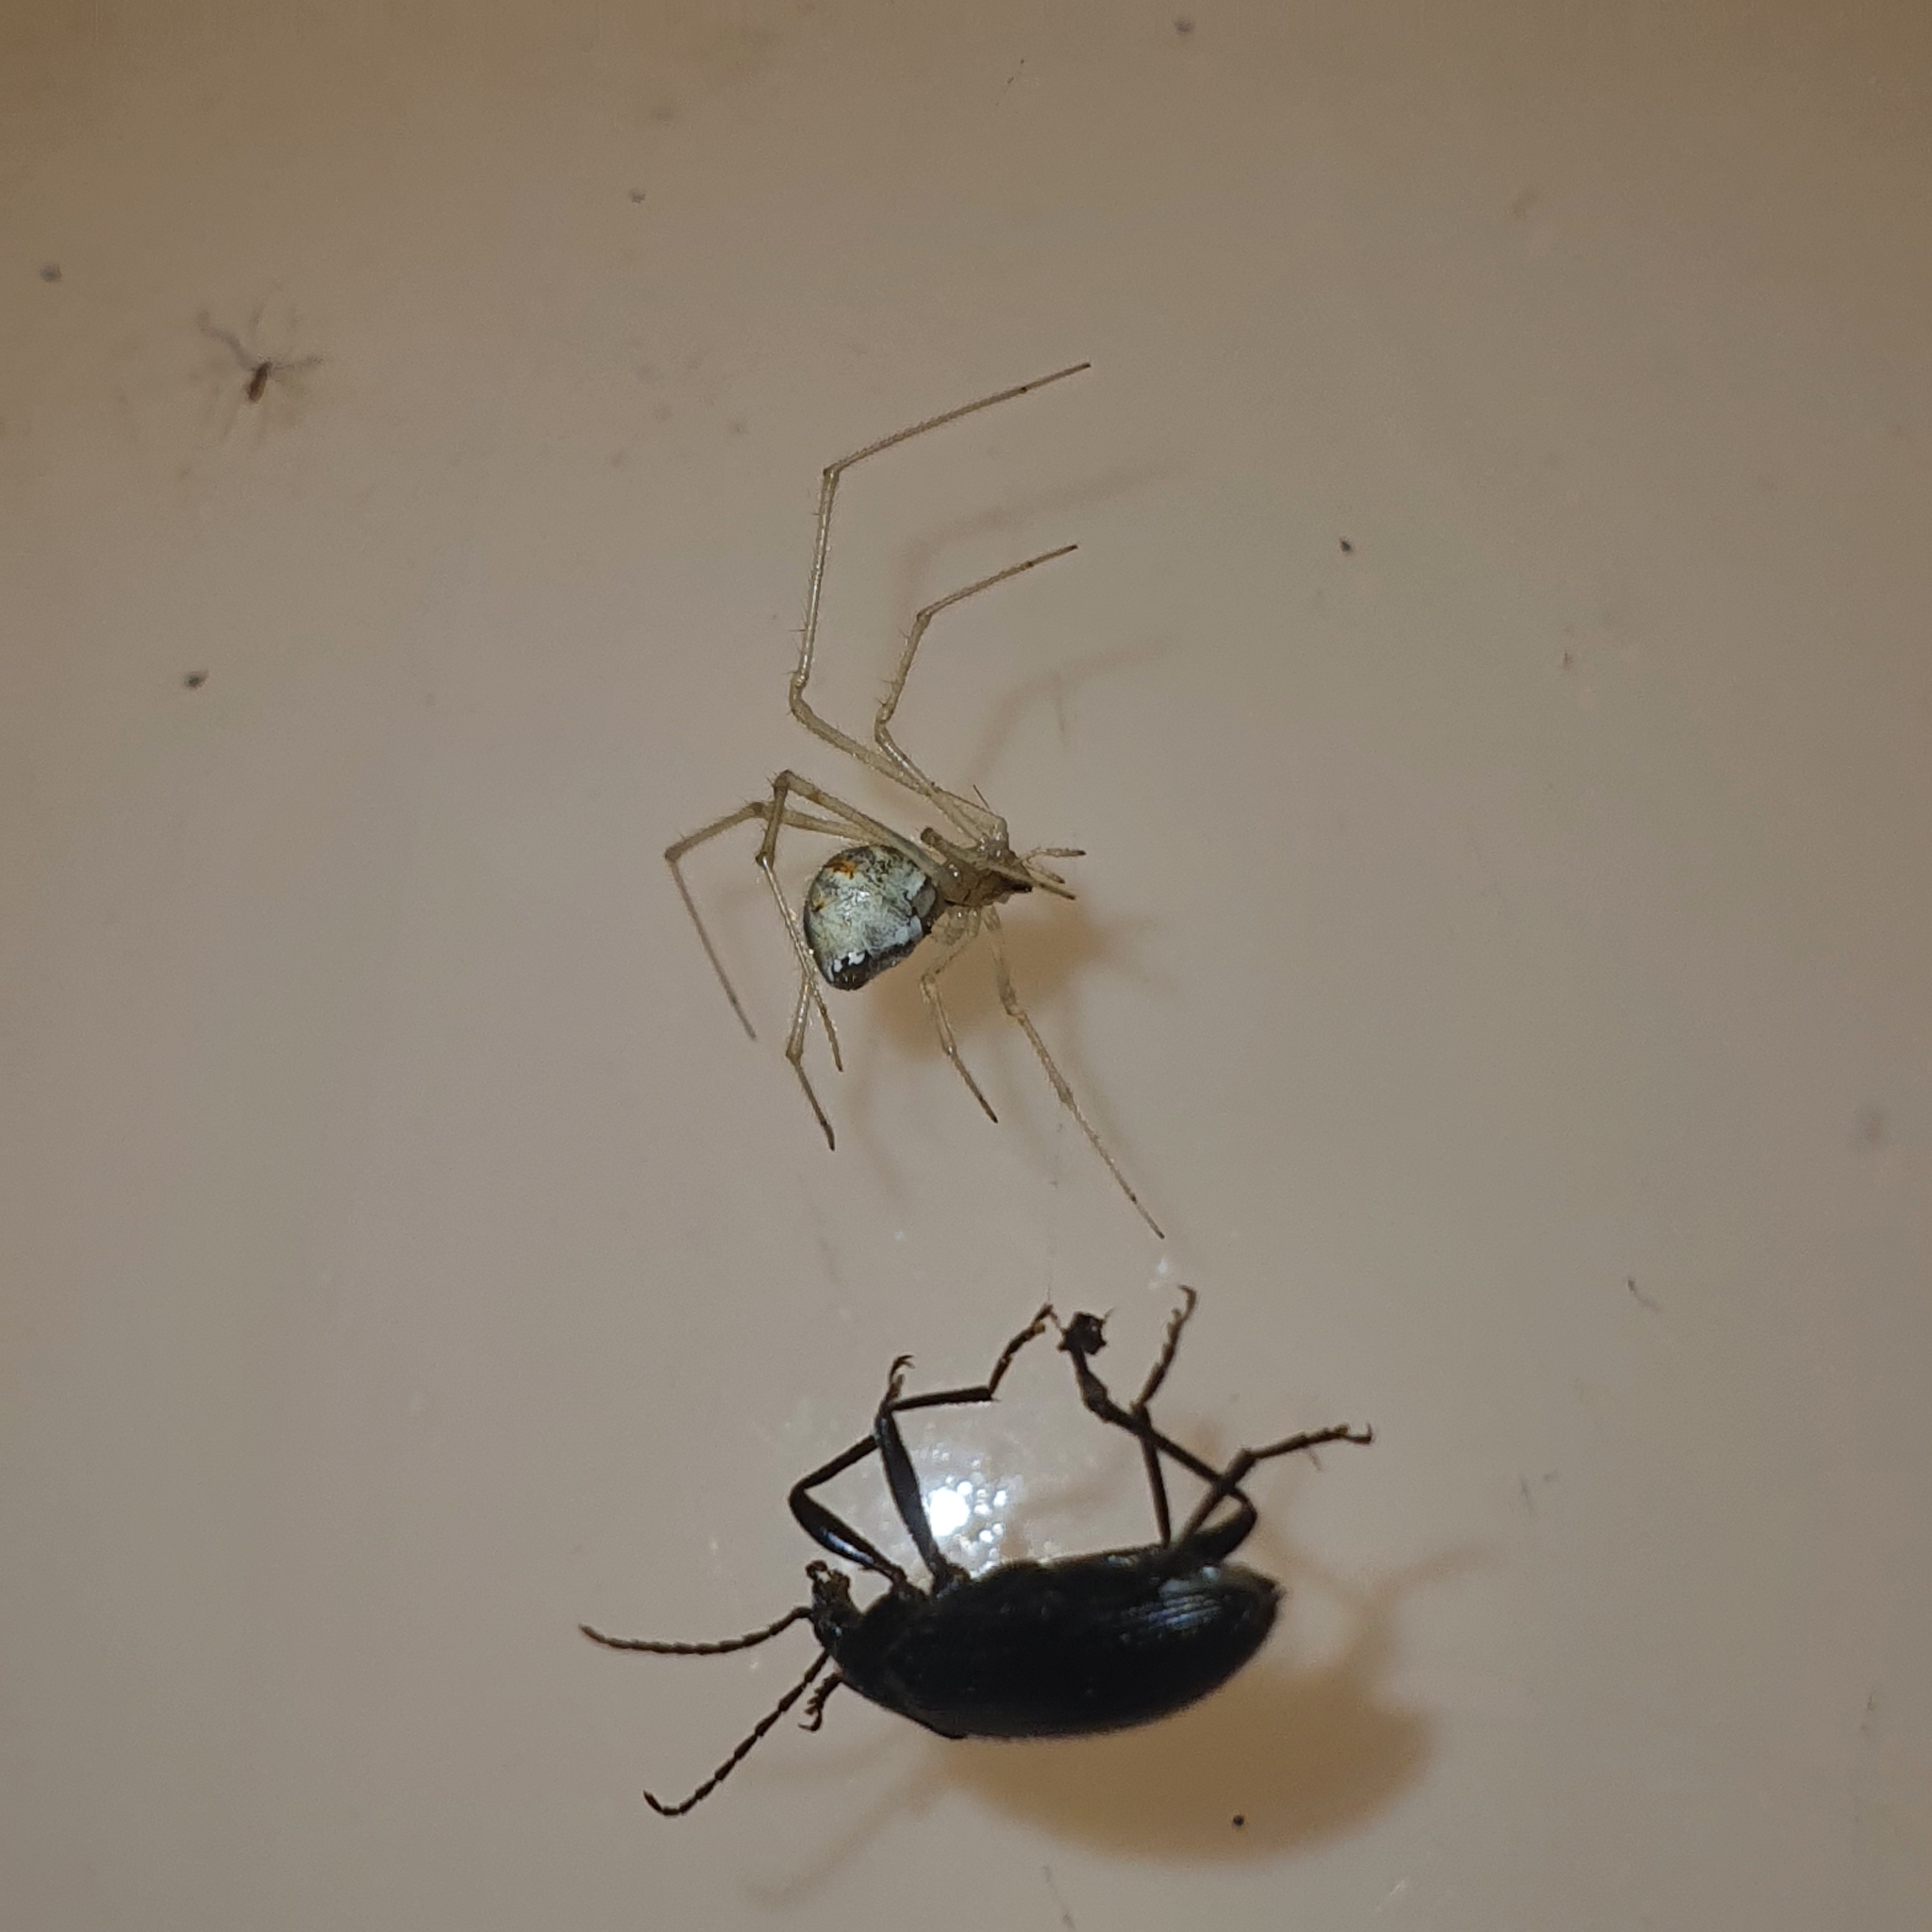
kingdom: Animalia
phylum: Arthropoda
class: Arachnida
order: Araneae
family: Theridiidae
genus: Cryptachaea
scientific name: Cryptachaea gigantipes
